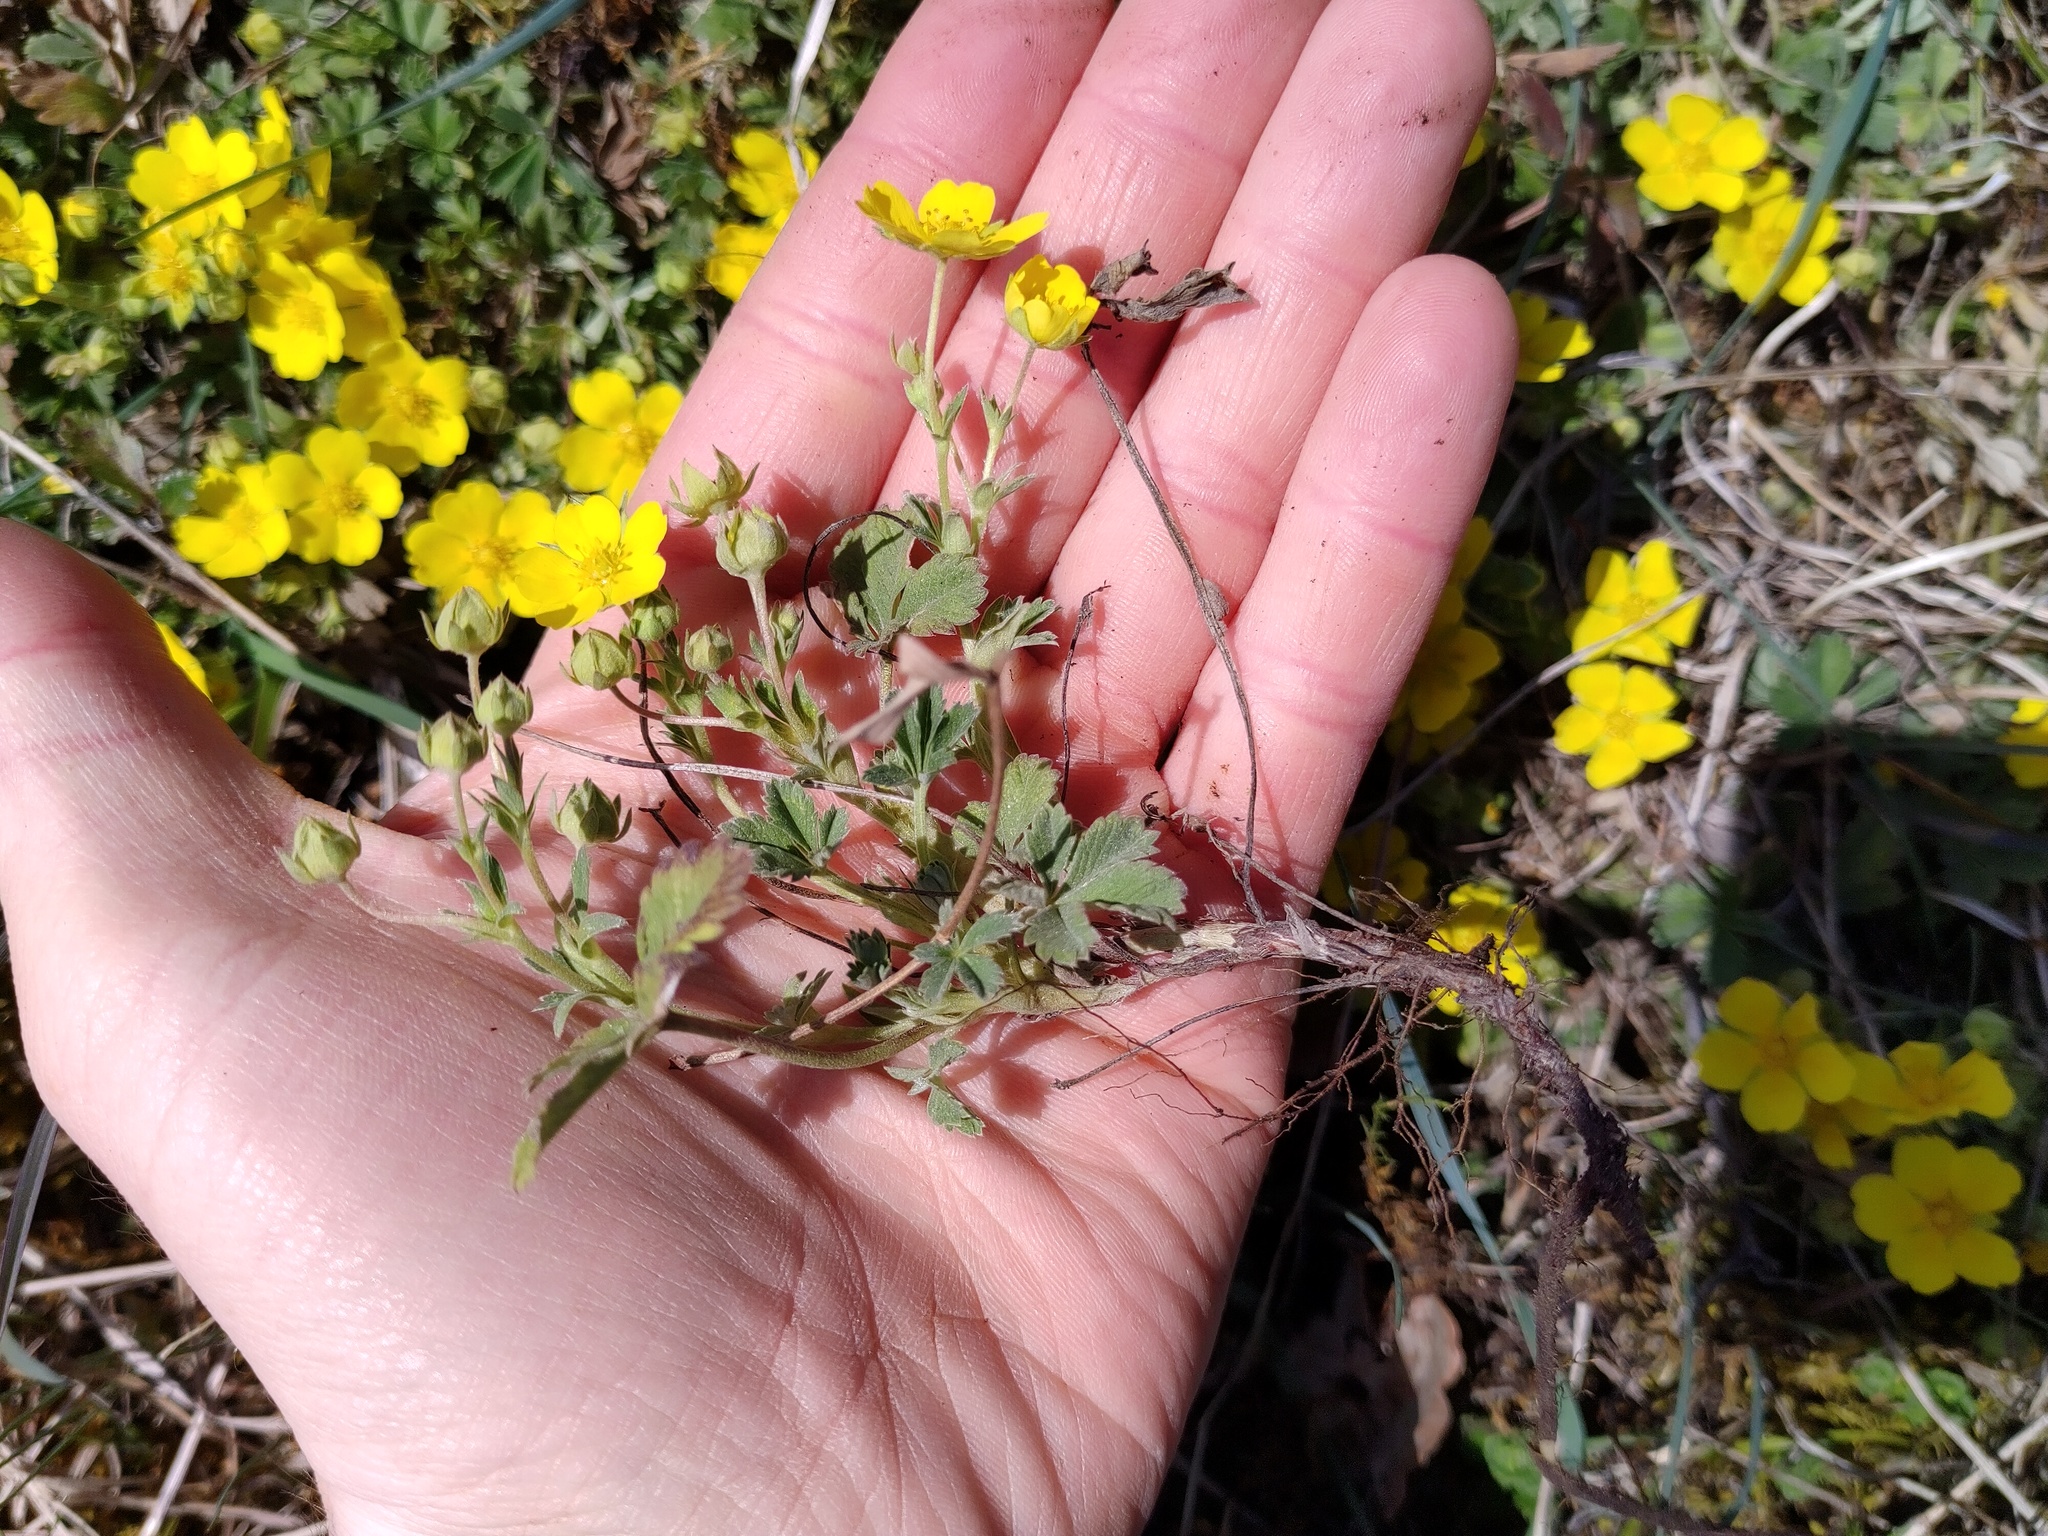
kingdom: Plantae
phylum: Tracheophyta
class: Magnoliopsida
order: Rosales
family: Rosaceae
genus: Potentilla
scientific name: Potentilla incana
